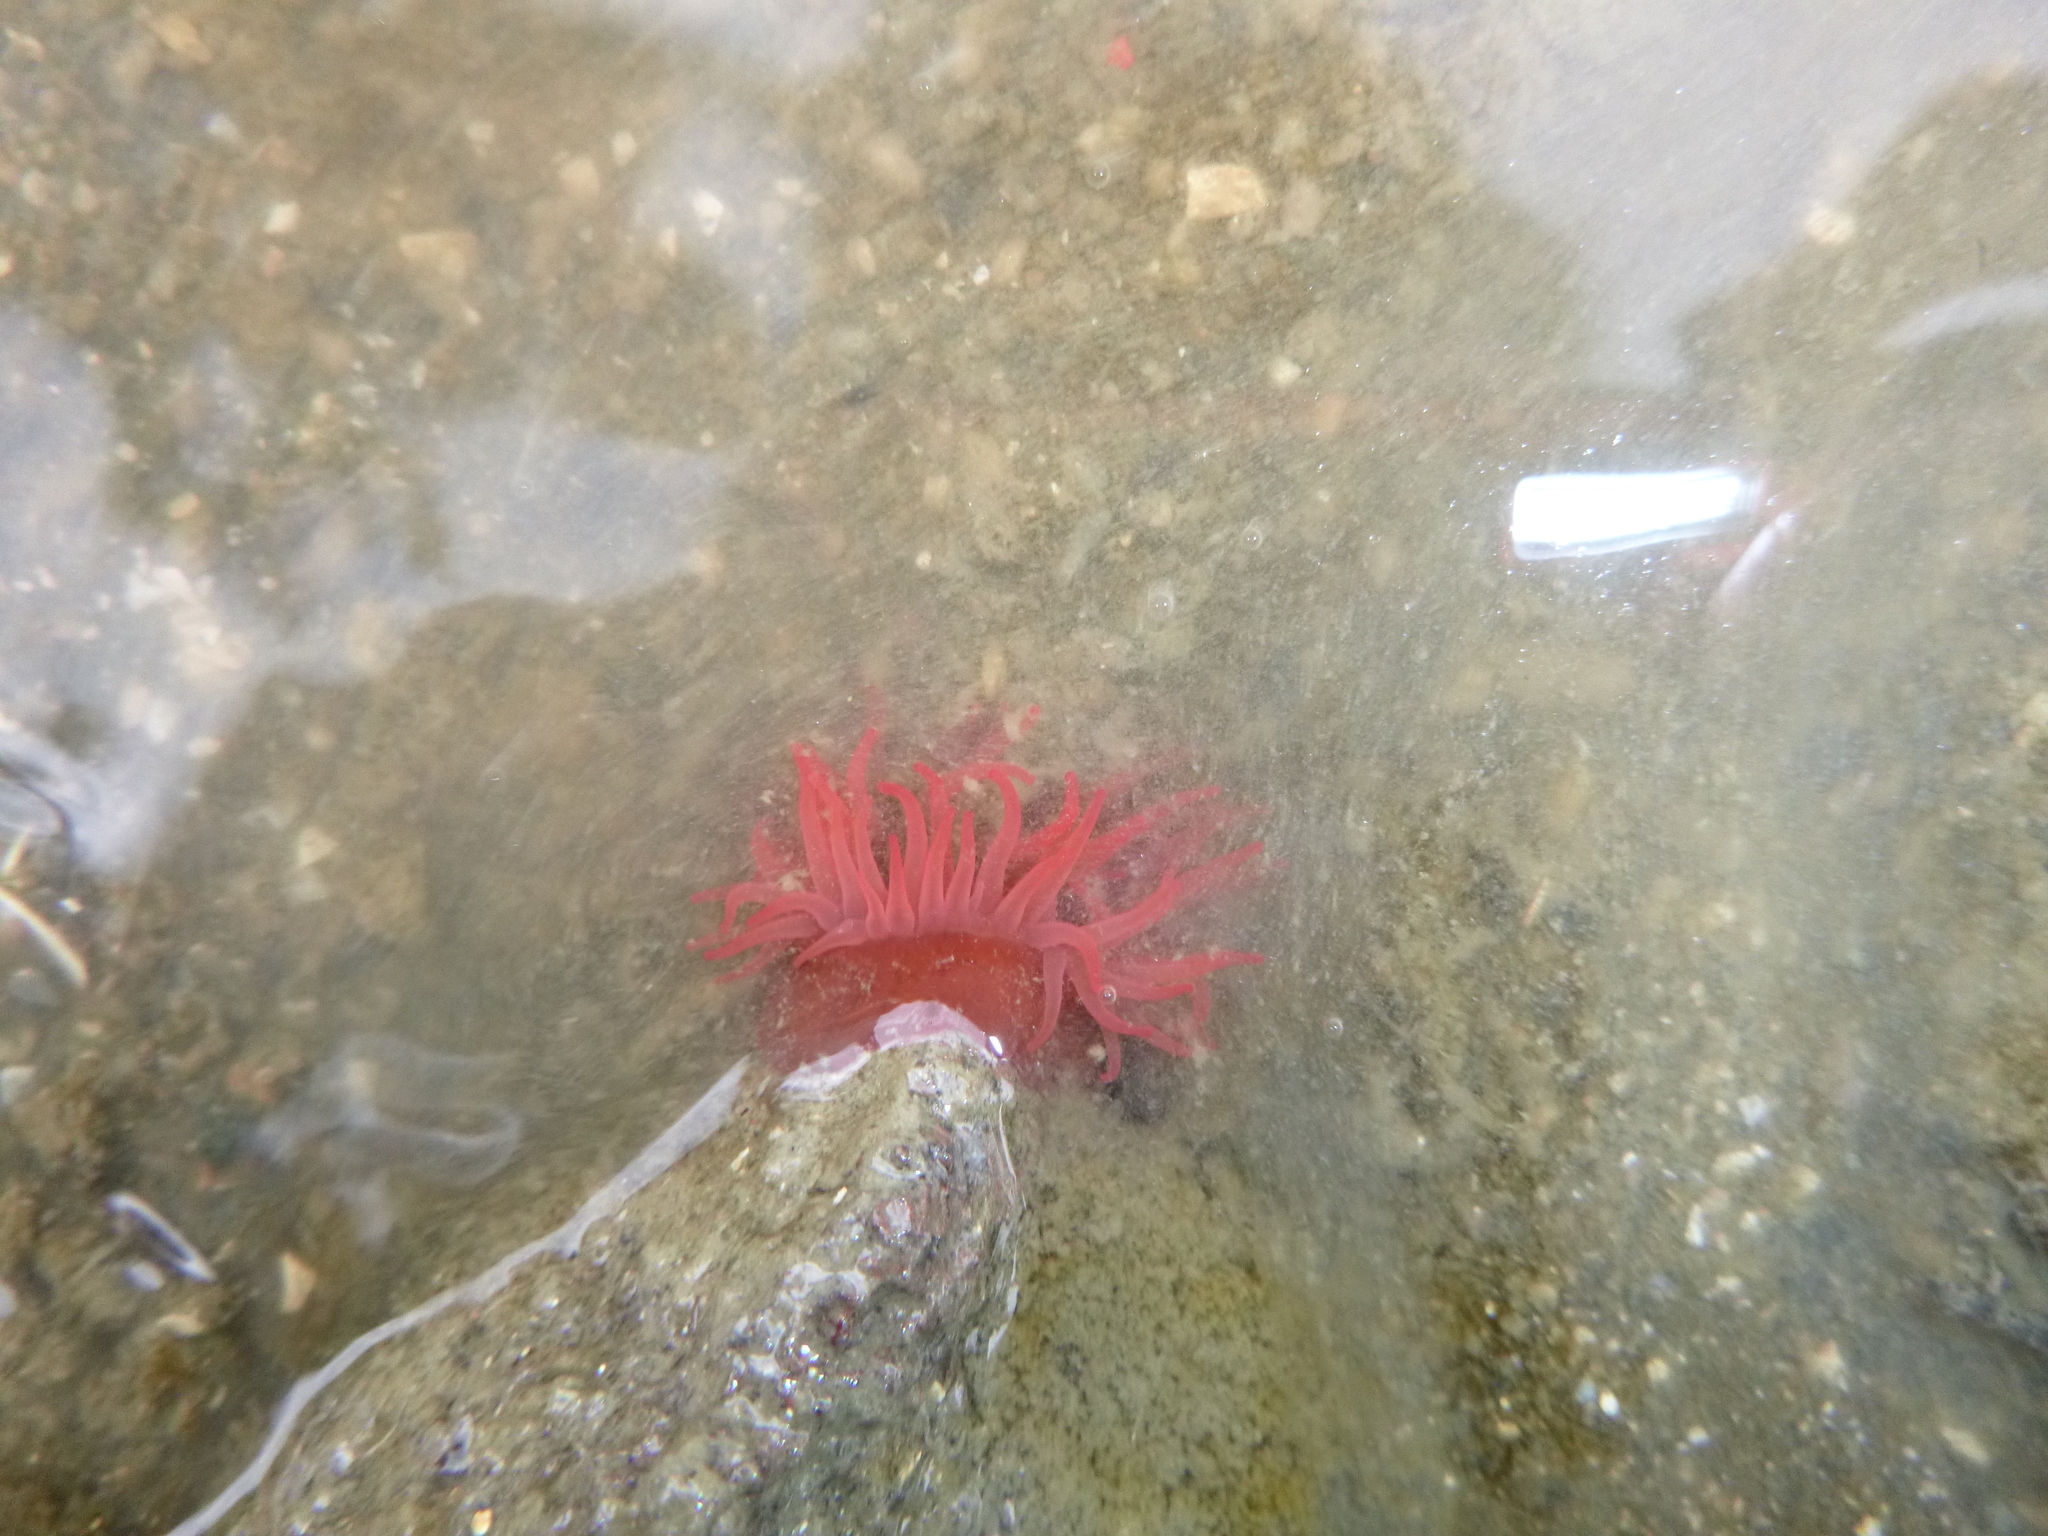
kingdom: Animalia
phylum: Cnidaria
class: Anthozoa
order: Actiniaria
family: Actiniidae
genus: Actinia
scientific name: Actinia tenebrosa
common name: Waratah anemone
